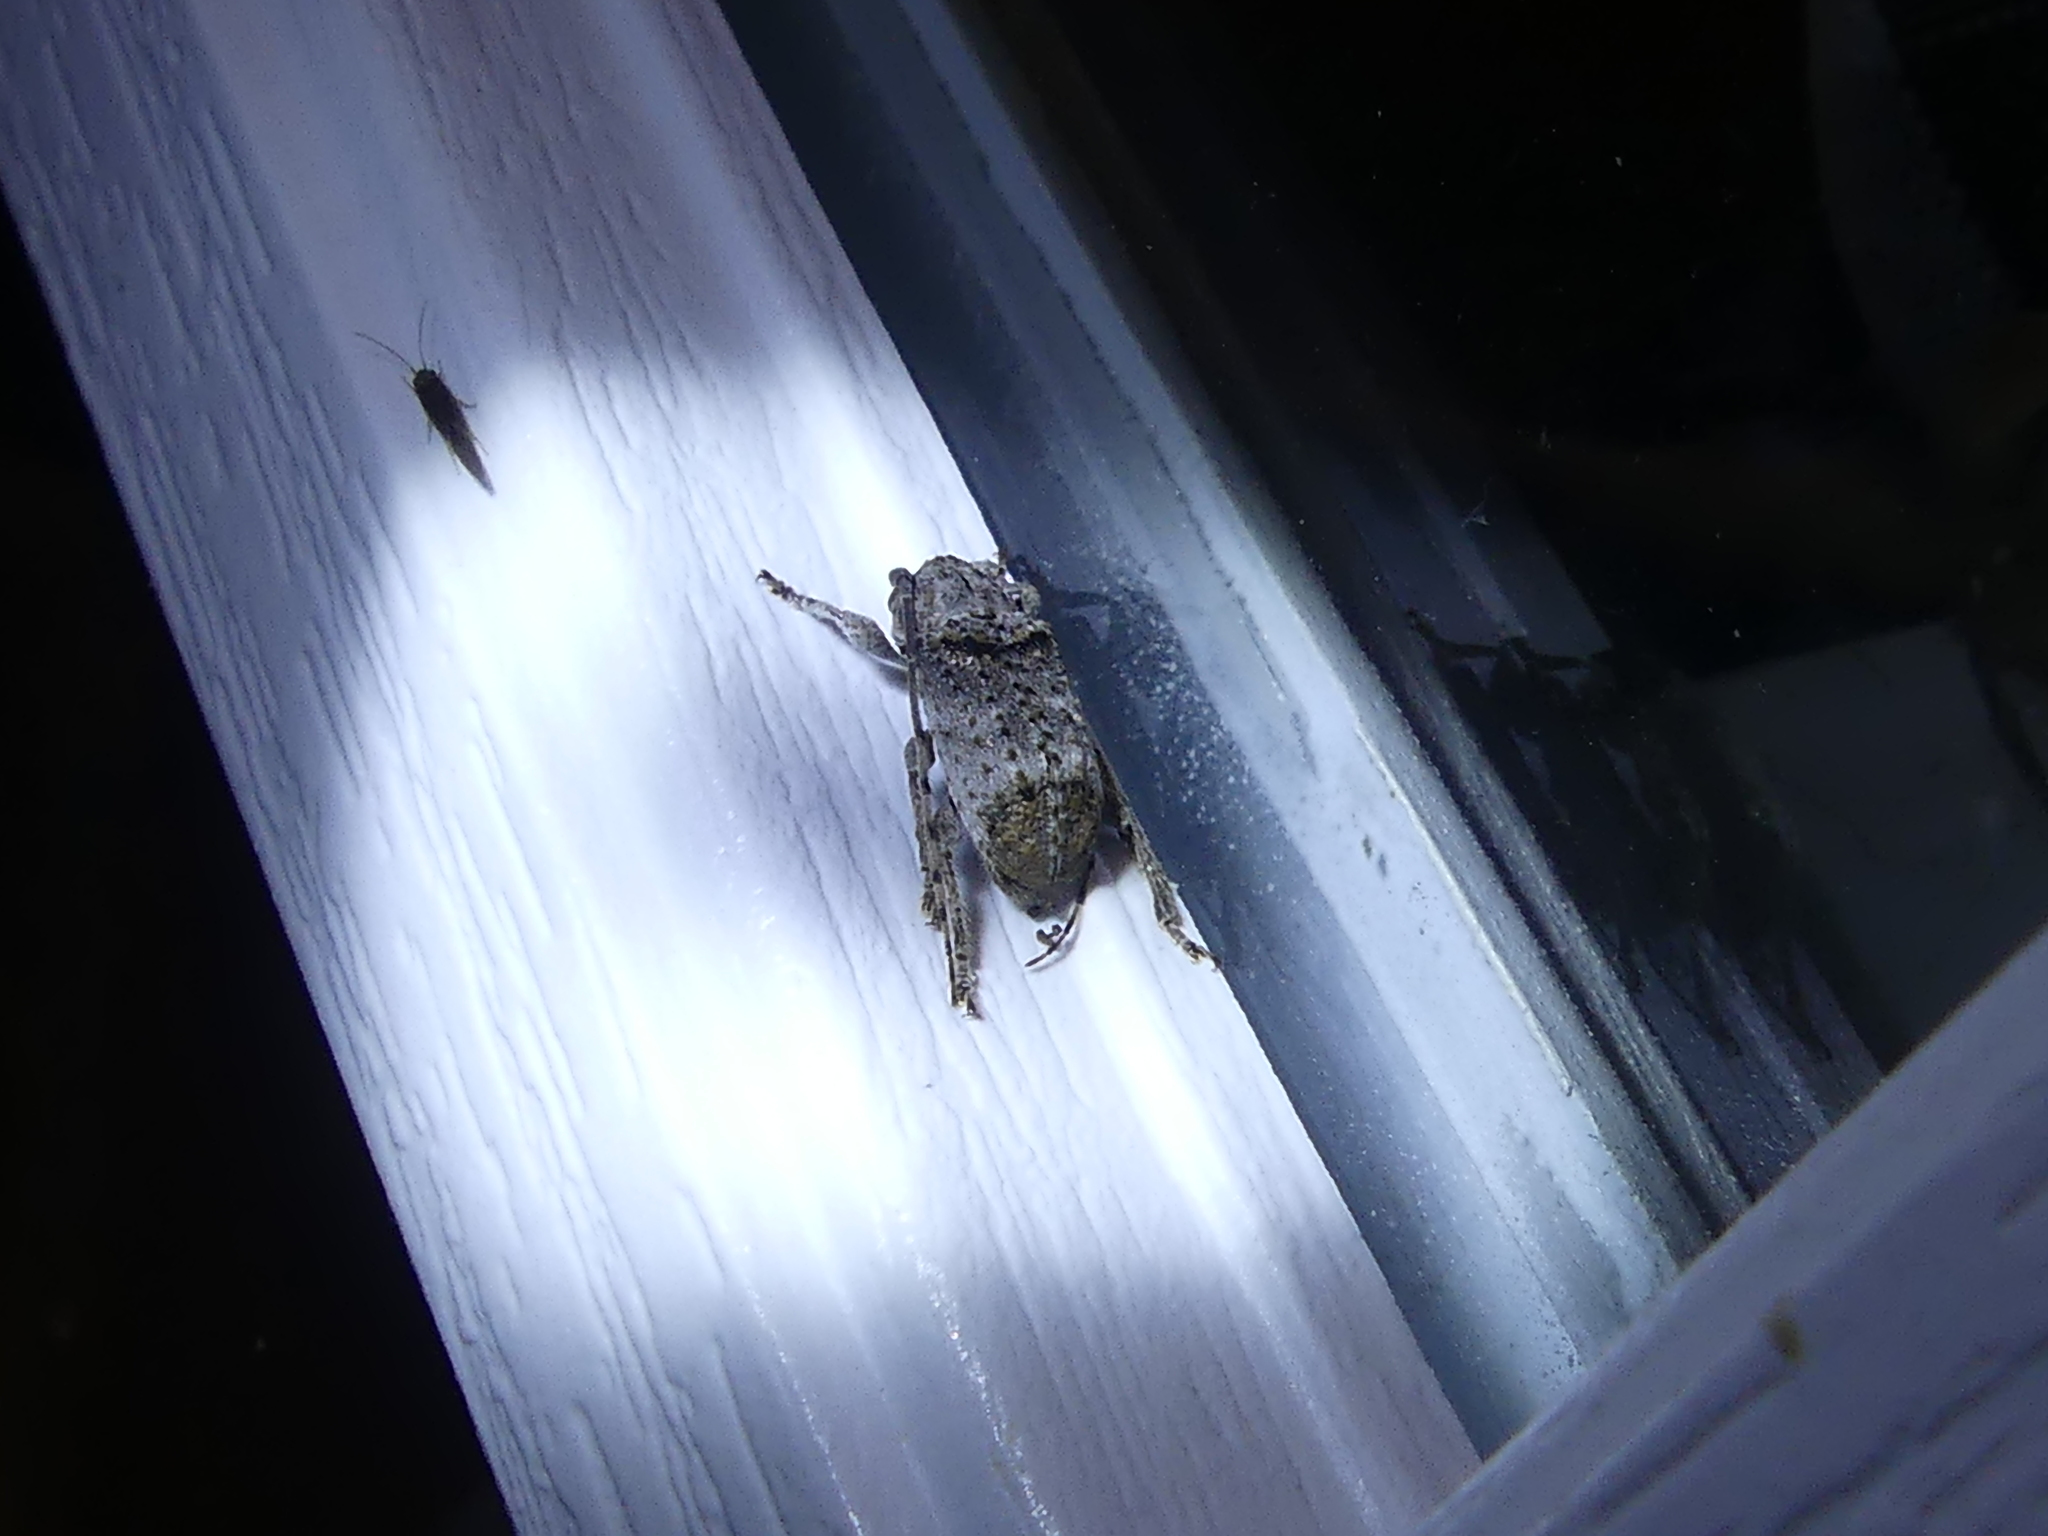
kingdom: Animalia
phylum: Arthropoda
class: Insecta
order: Coleoptera
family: Cerambycidae
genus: Ecyrus
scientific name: Ecyrus dasycerus
